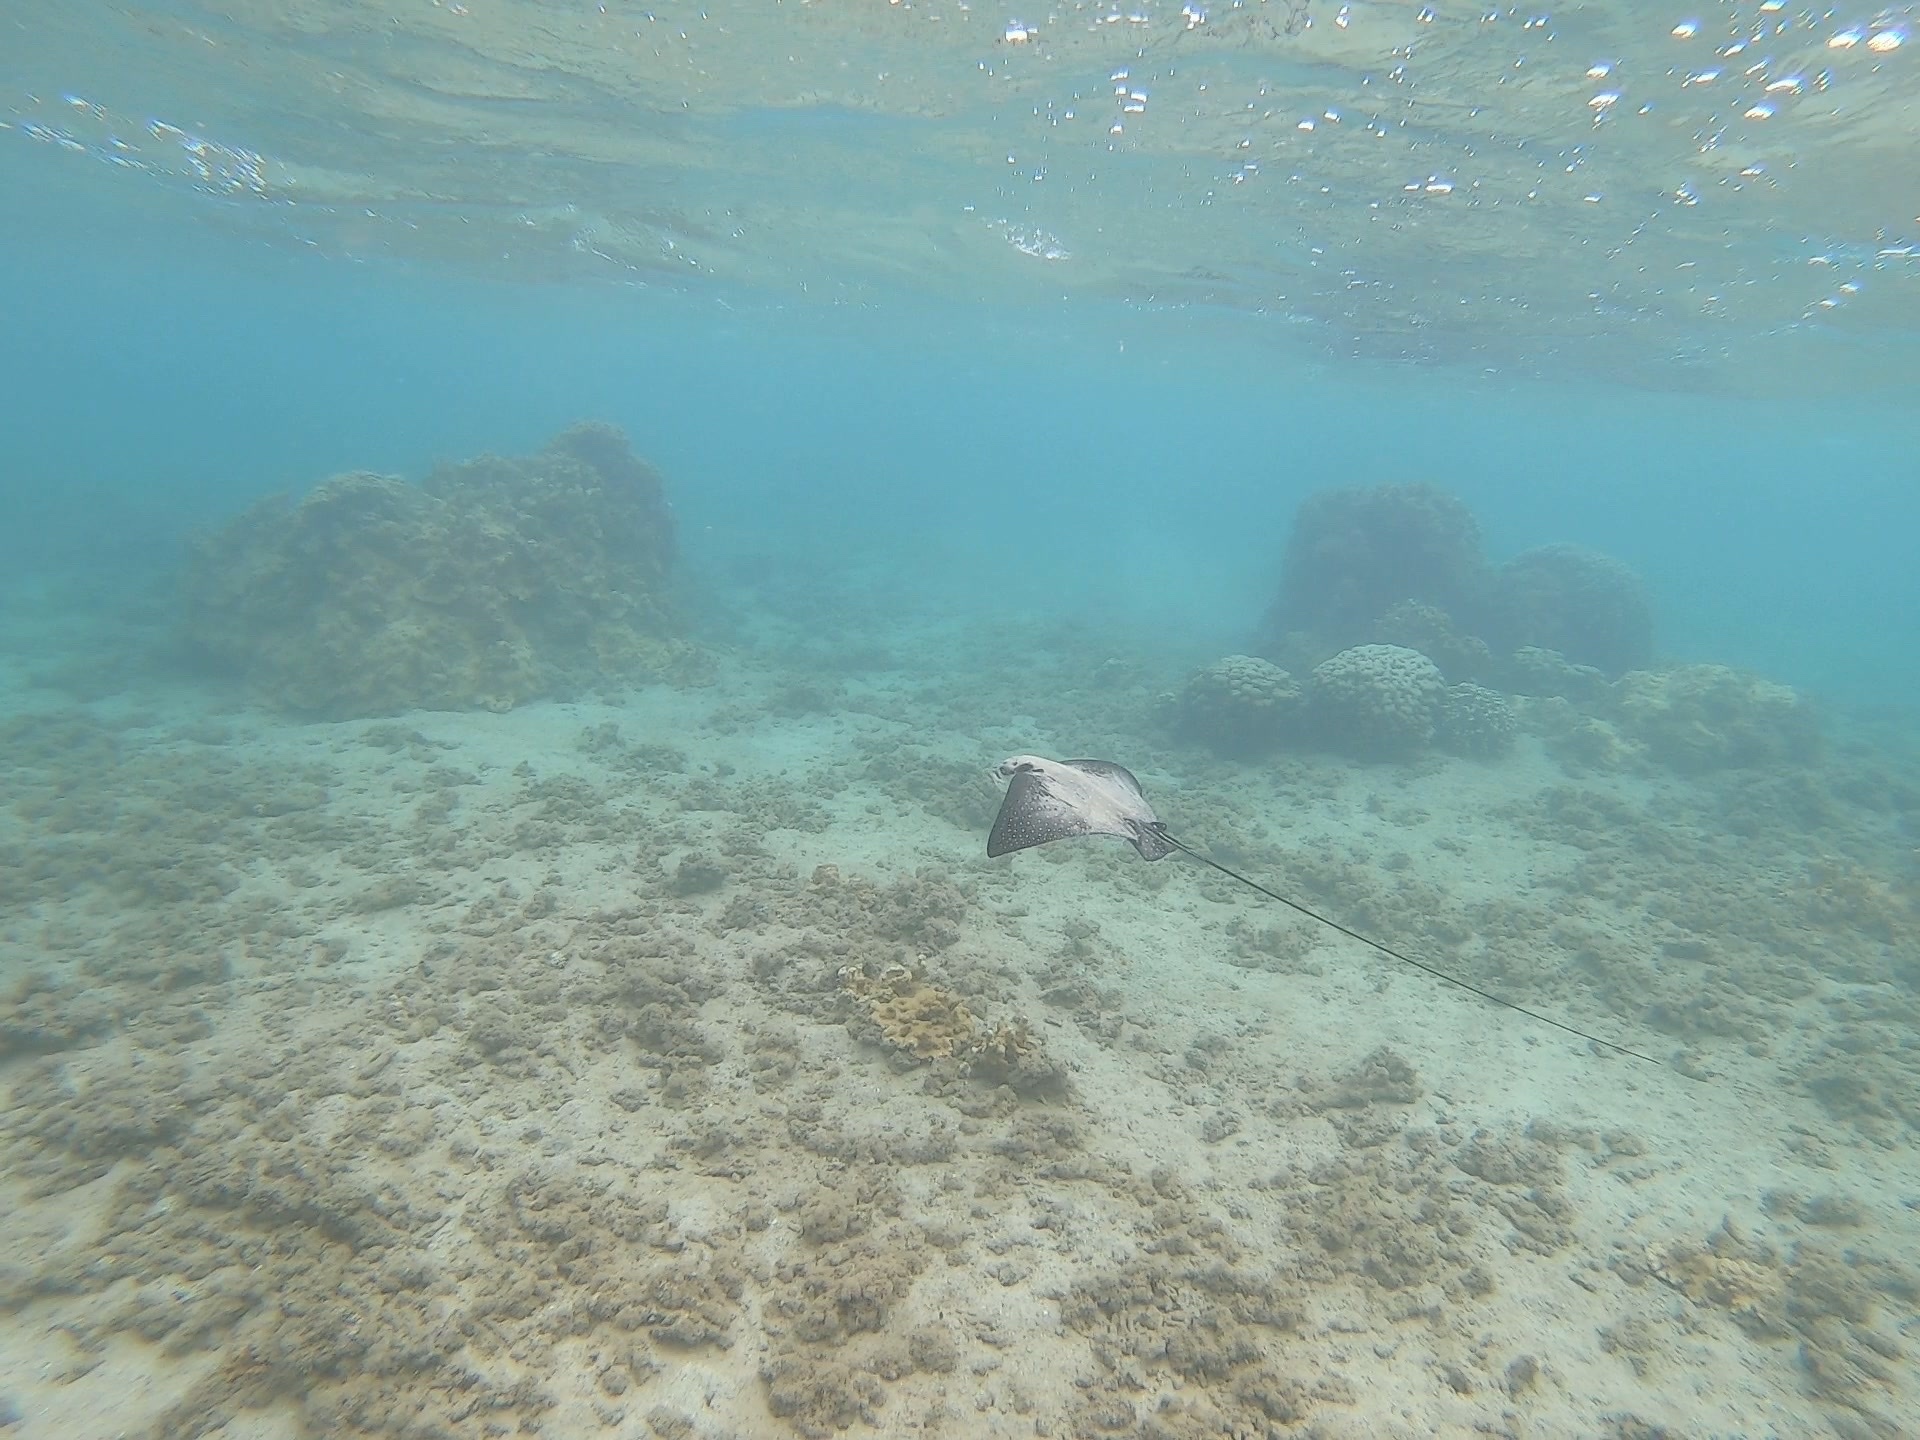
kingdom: Animalia
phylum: Chordata
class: Elasmobranchii
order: Myliobatiformes
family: Myliobatidae
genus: Aetobatus
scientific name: Aetobatus ocellatus
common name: Ocellated eagle ray
